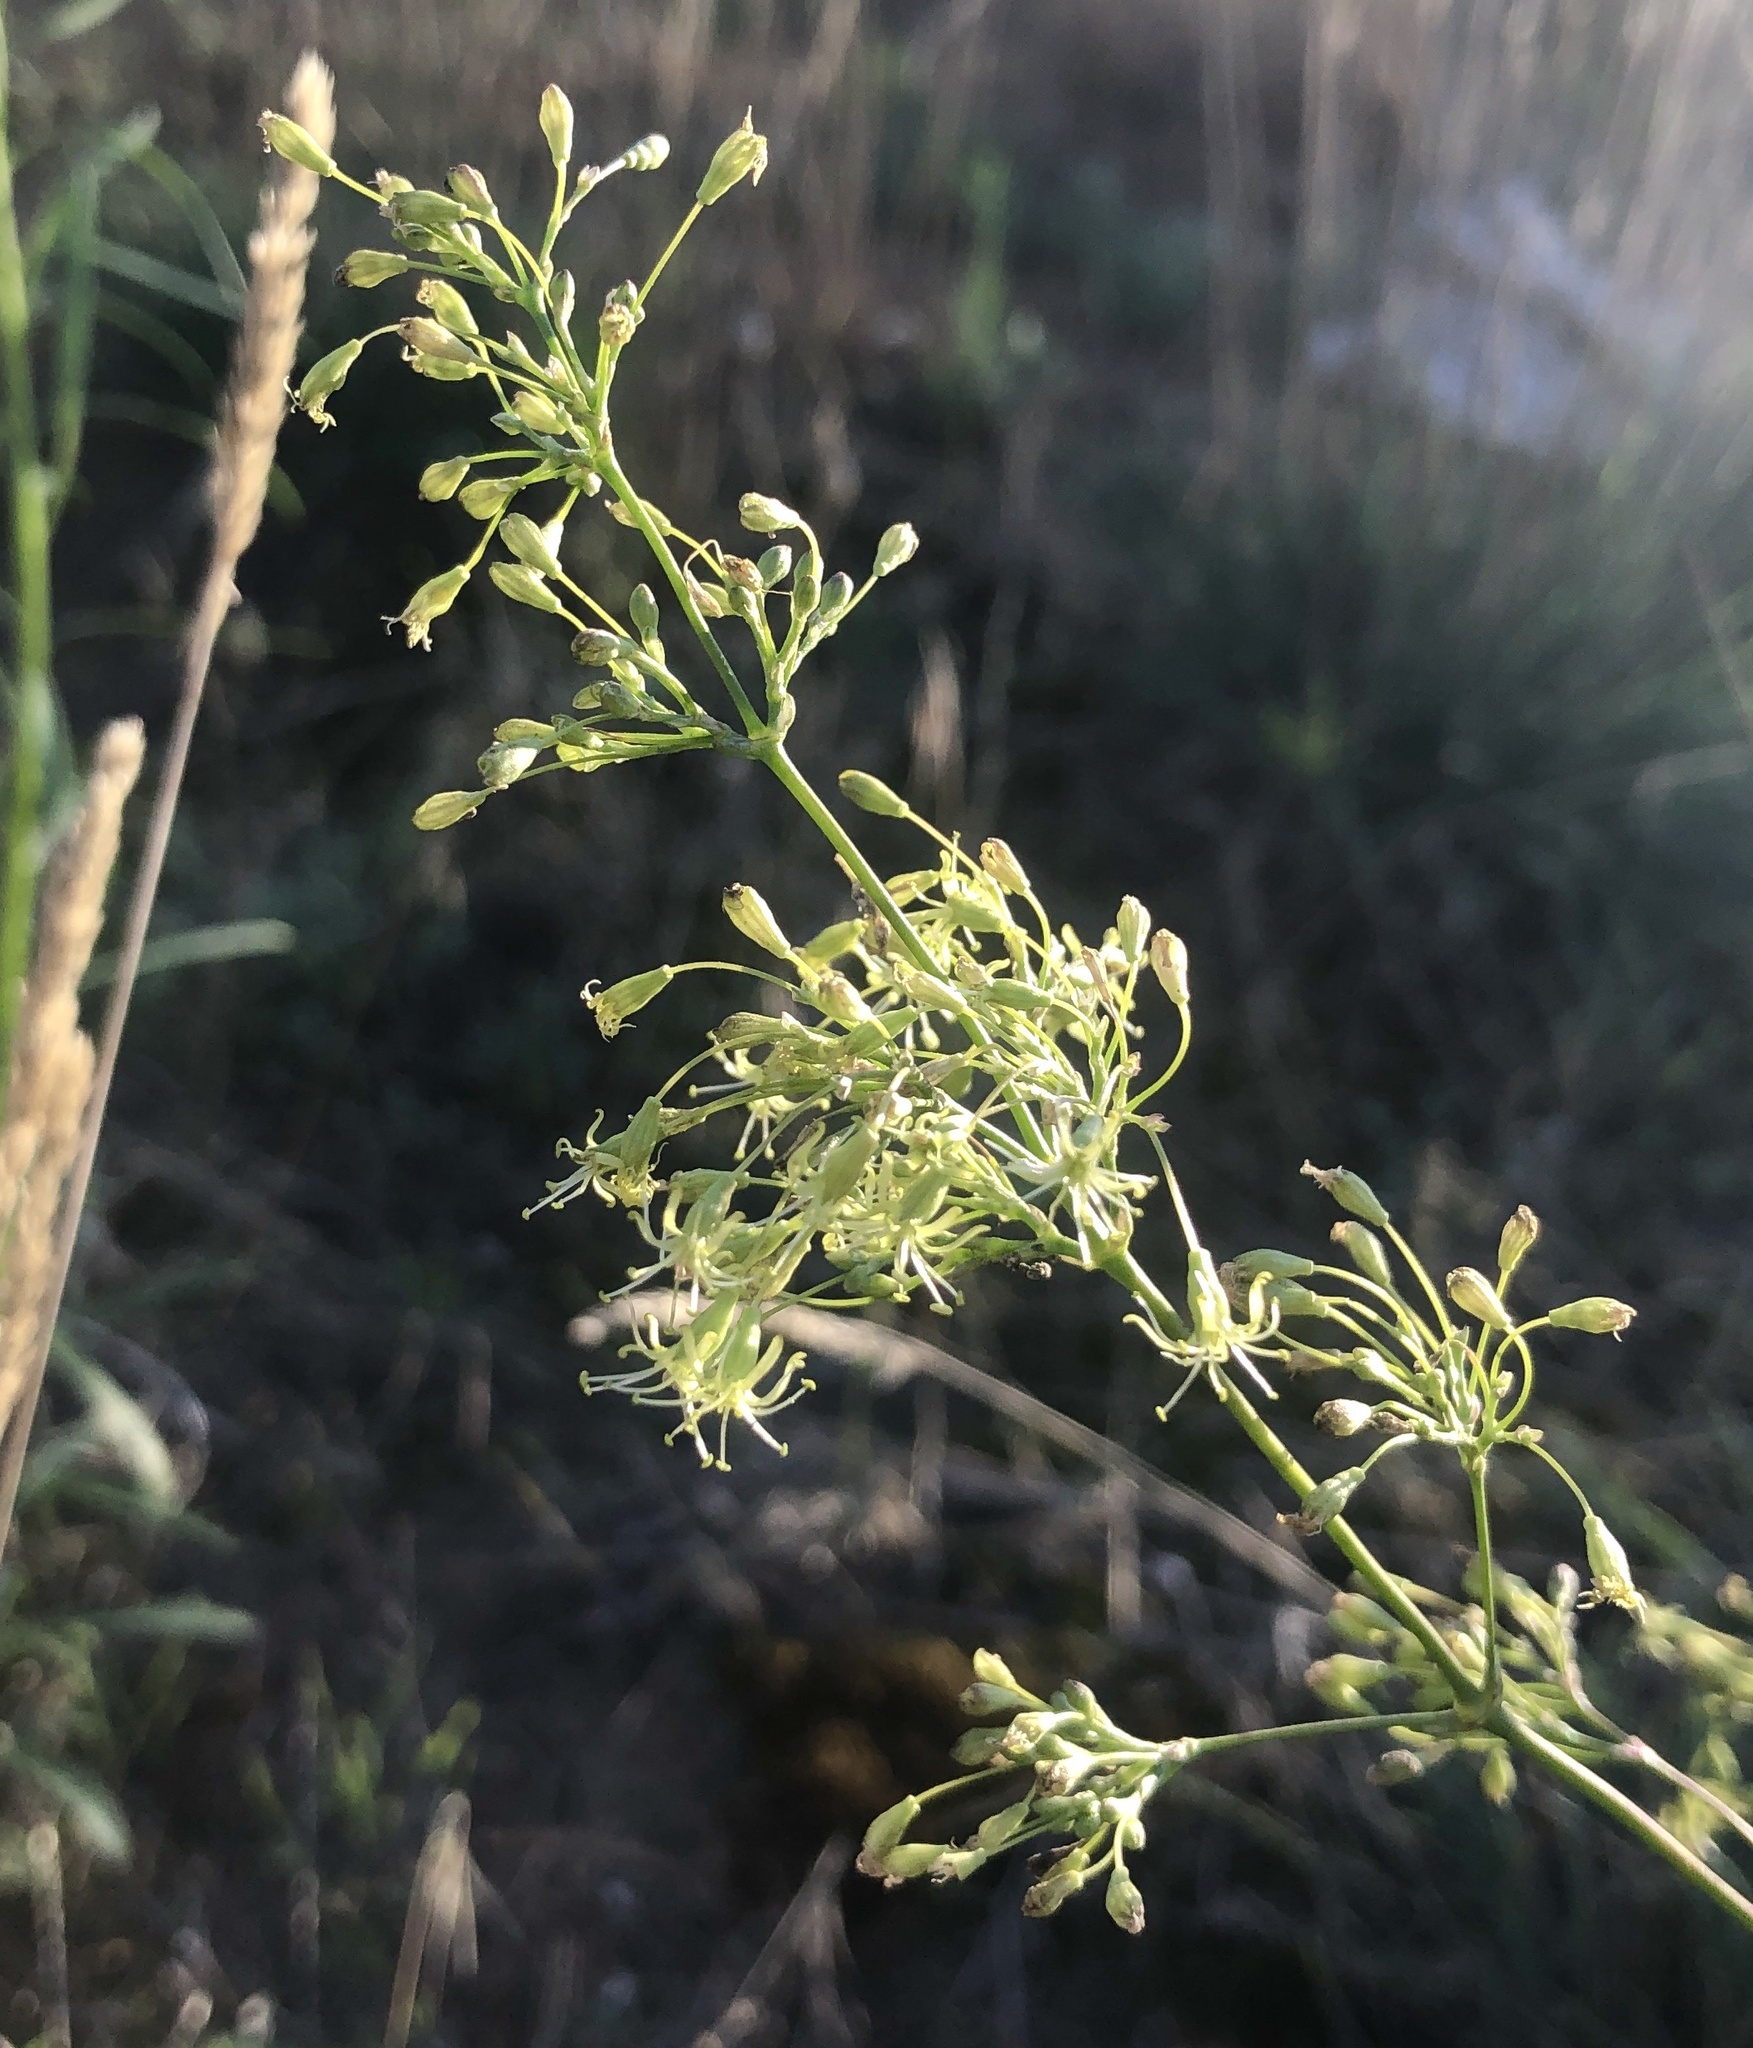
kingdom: Plantae
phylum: Tracheophyta
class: Magnoliopsida
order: Caryophyllales
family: Caryophyllaceae
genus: Silene
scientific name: Silene otites
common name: Spanish catchfly
